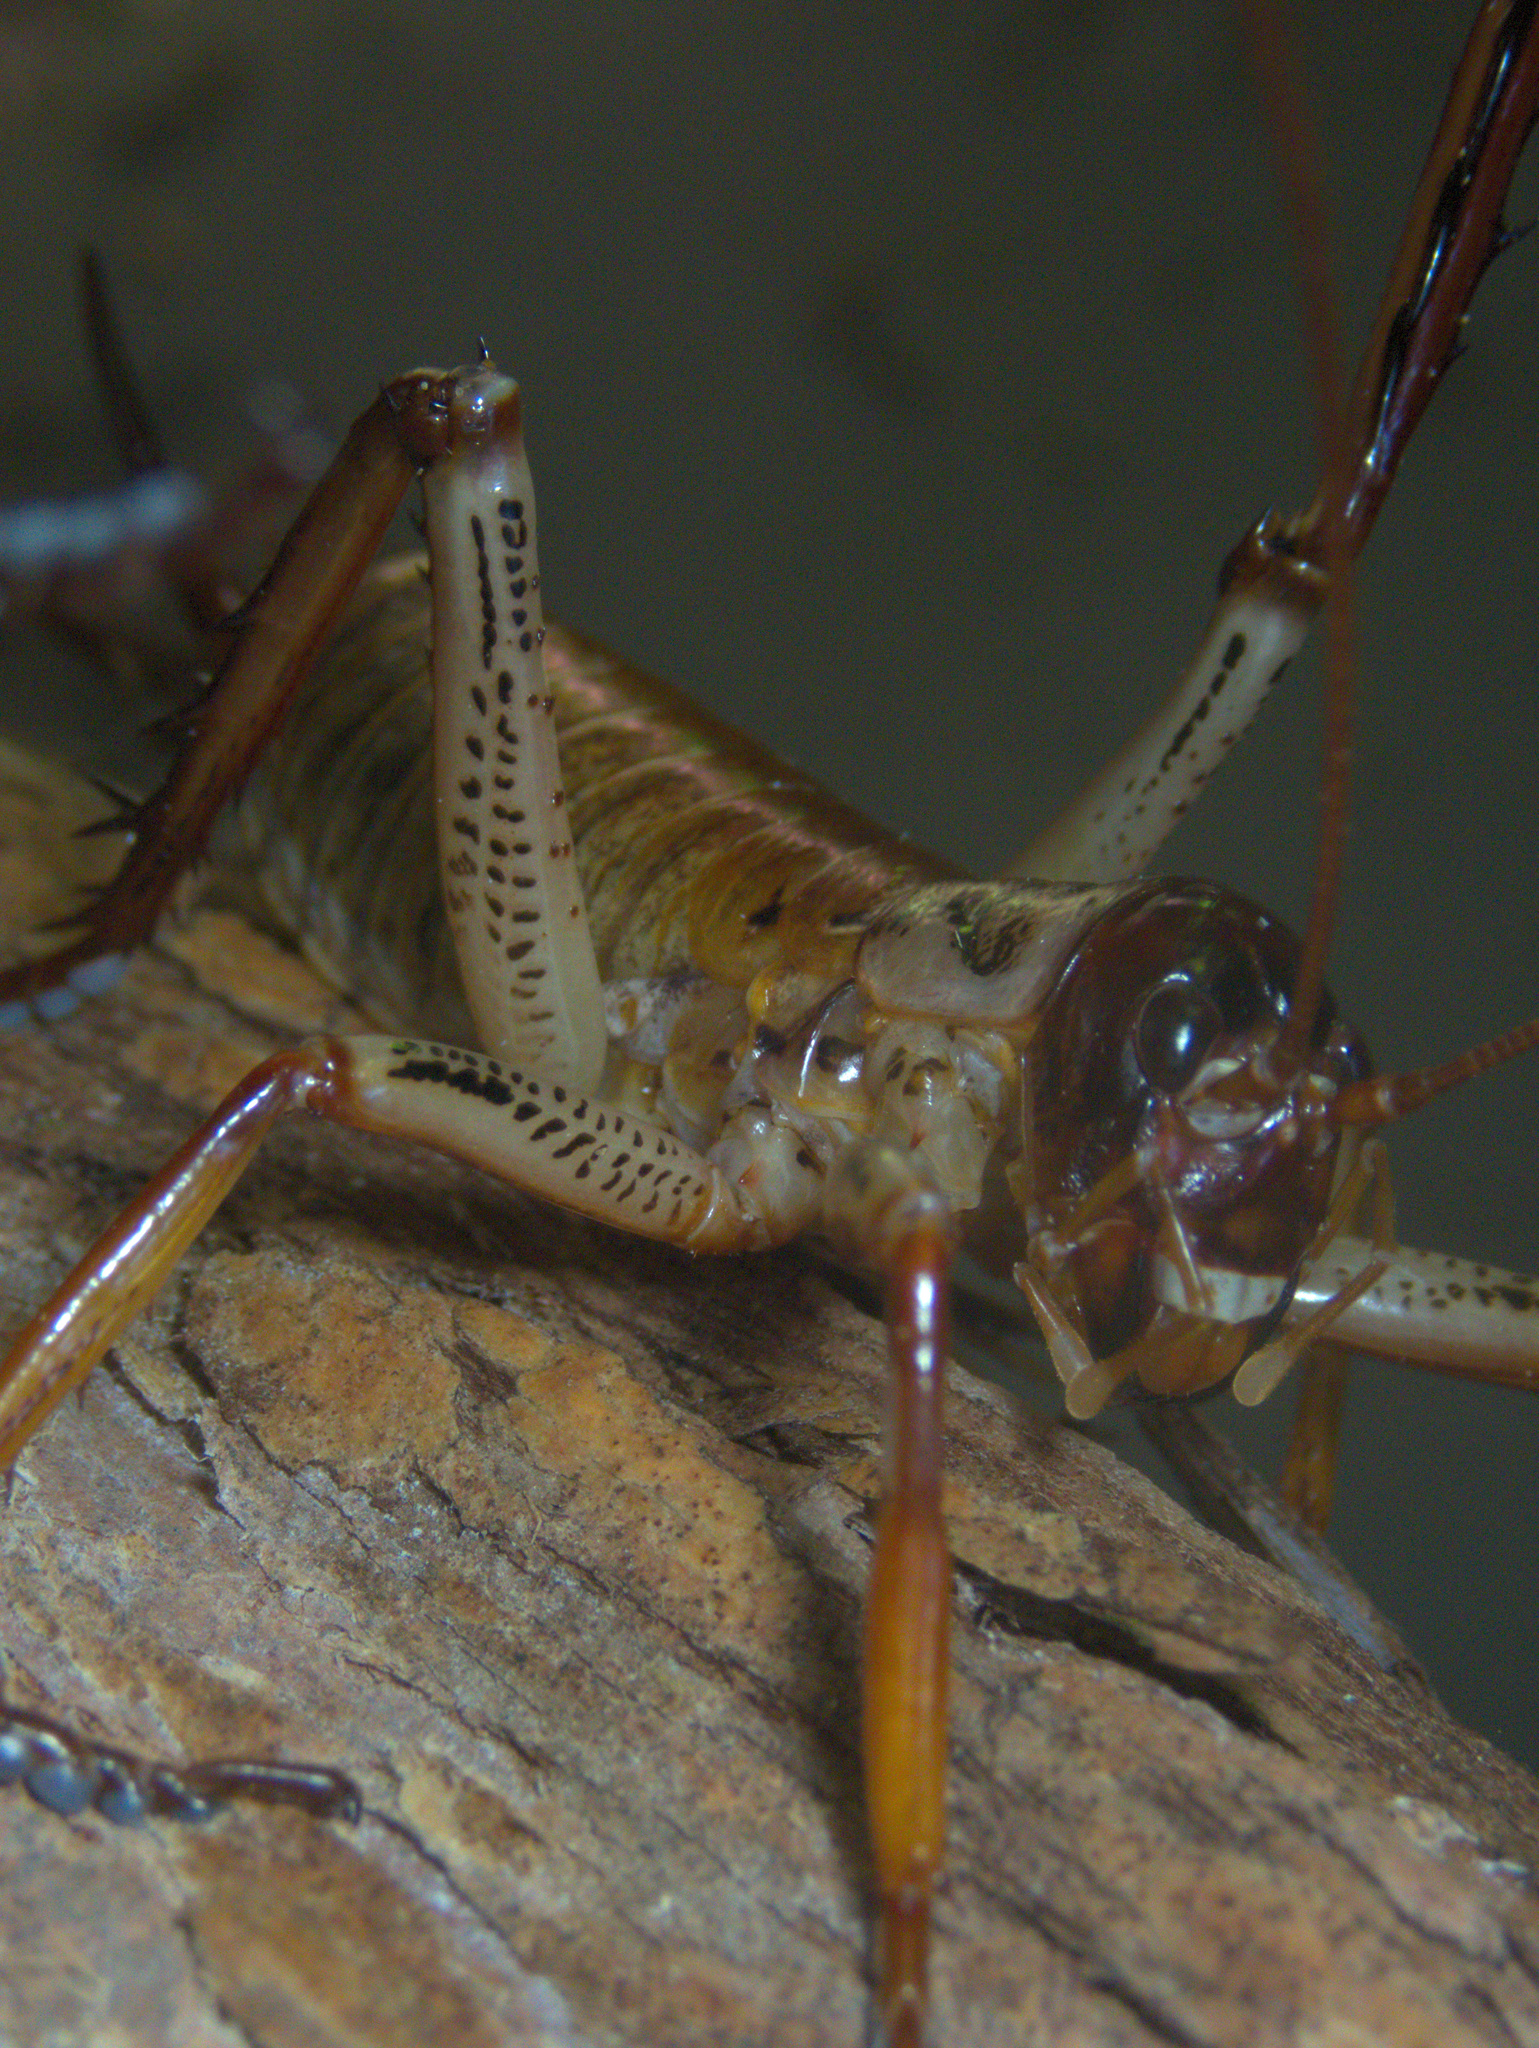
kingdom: Animalia
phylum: Arthropoda
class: Insecta
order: Orthoptera
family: Anostostomatidae
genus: Hemideina
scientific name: Hemideina thoracica
